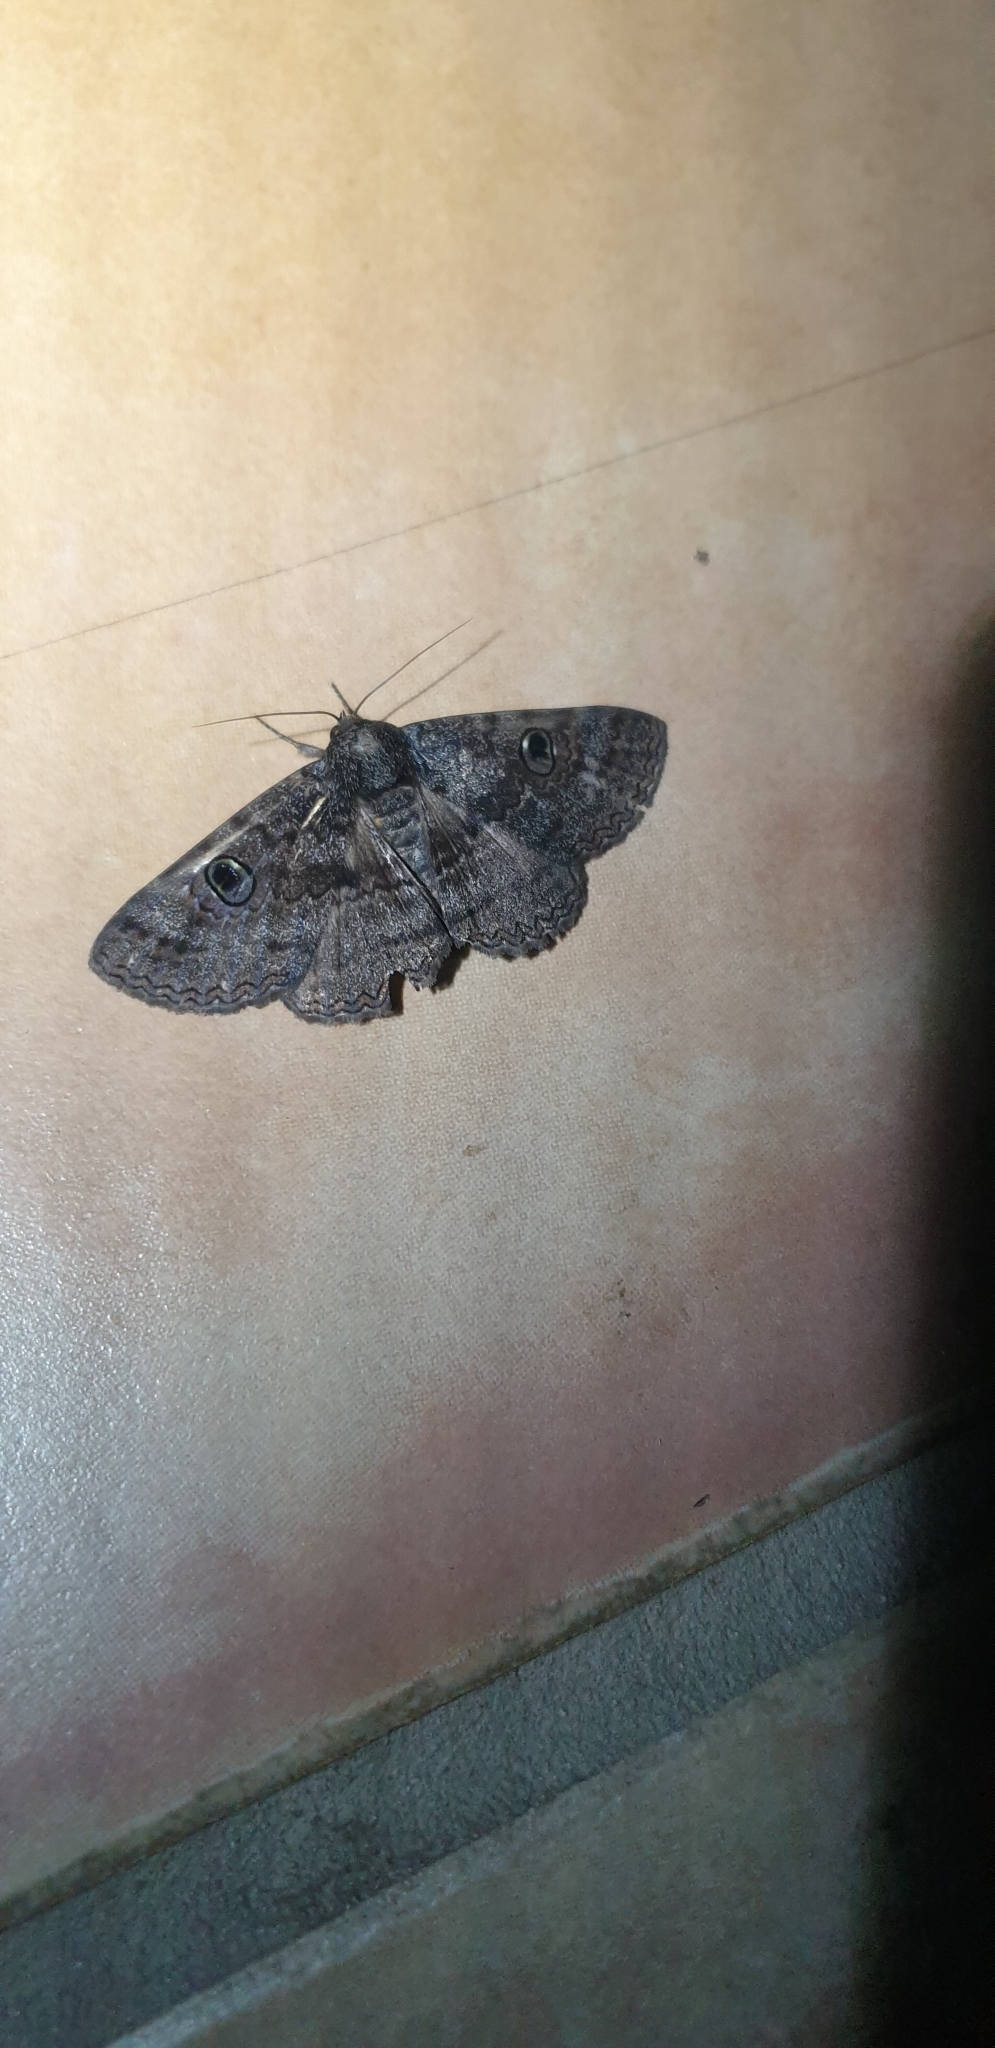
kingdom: Animalia
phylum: Arthropoda
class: Insecta
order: Lepidoptera
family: Erebidae
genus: Donuca
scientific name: Donuca castalia
